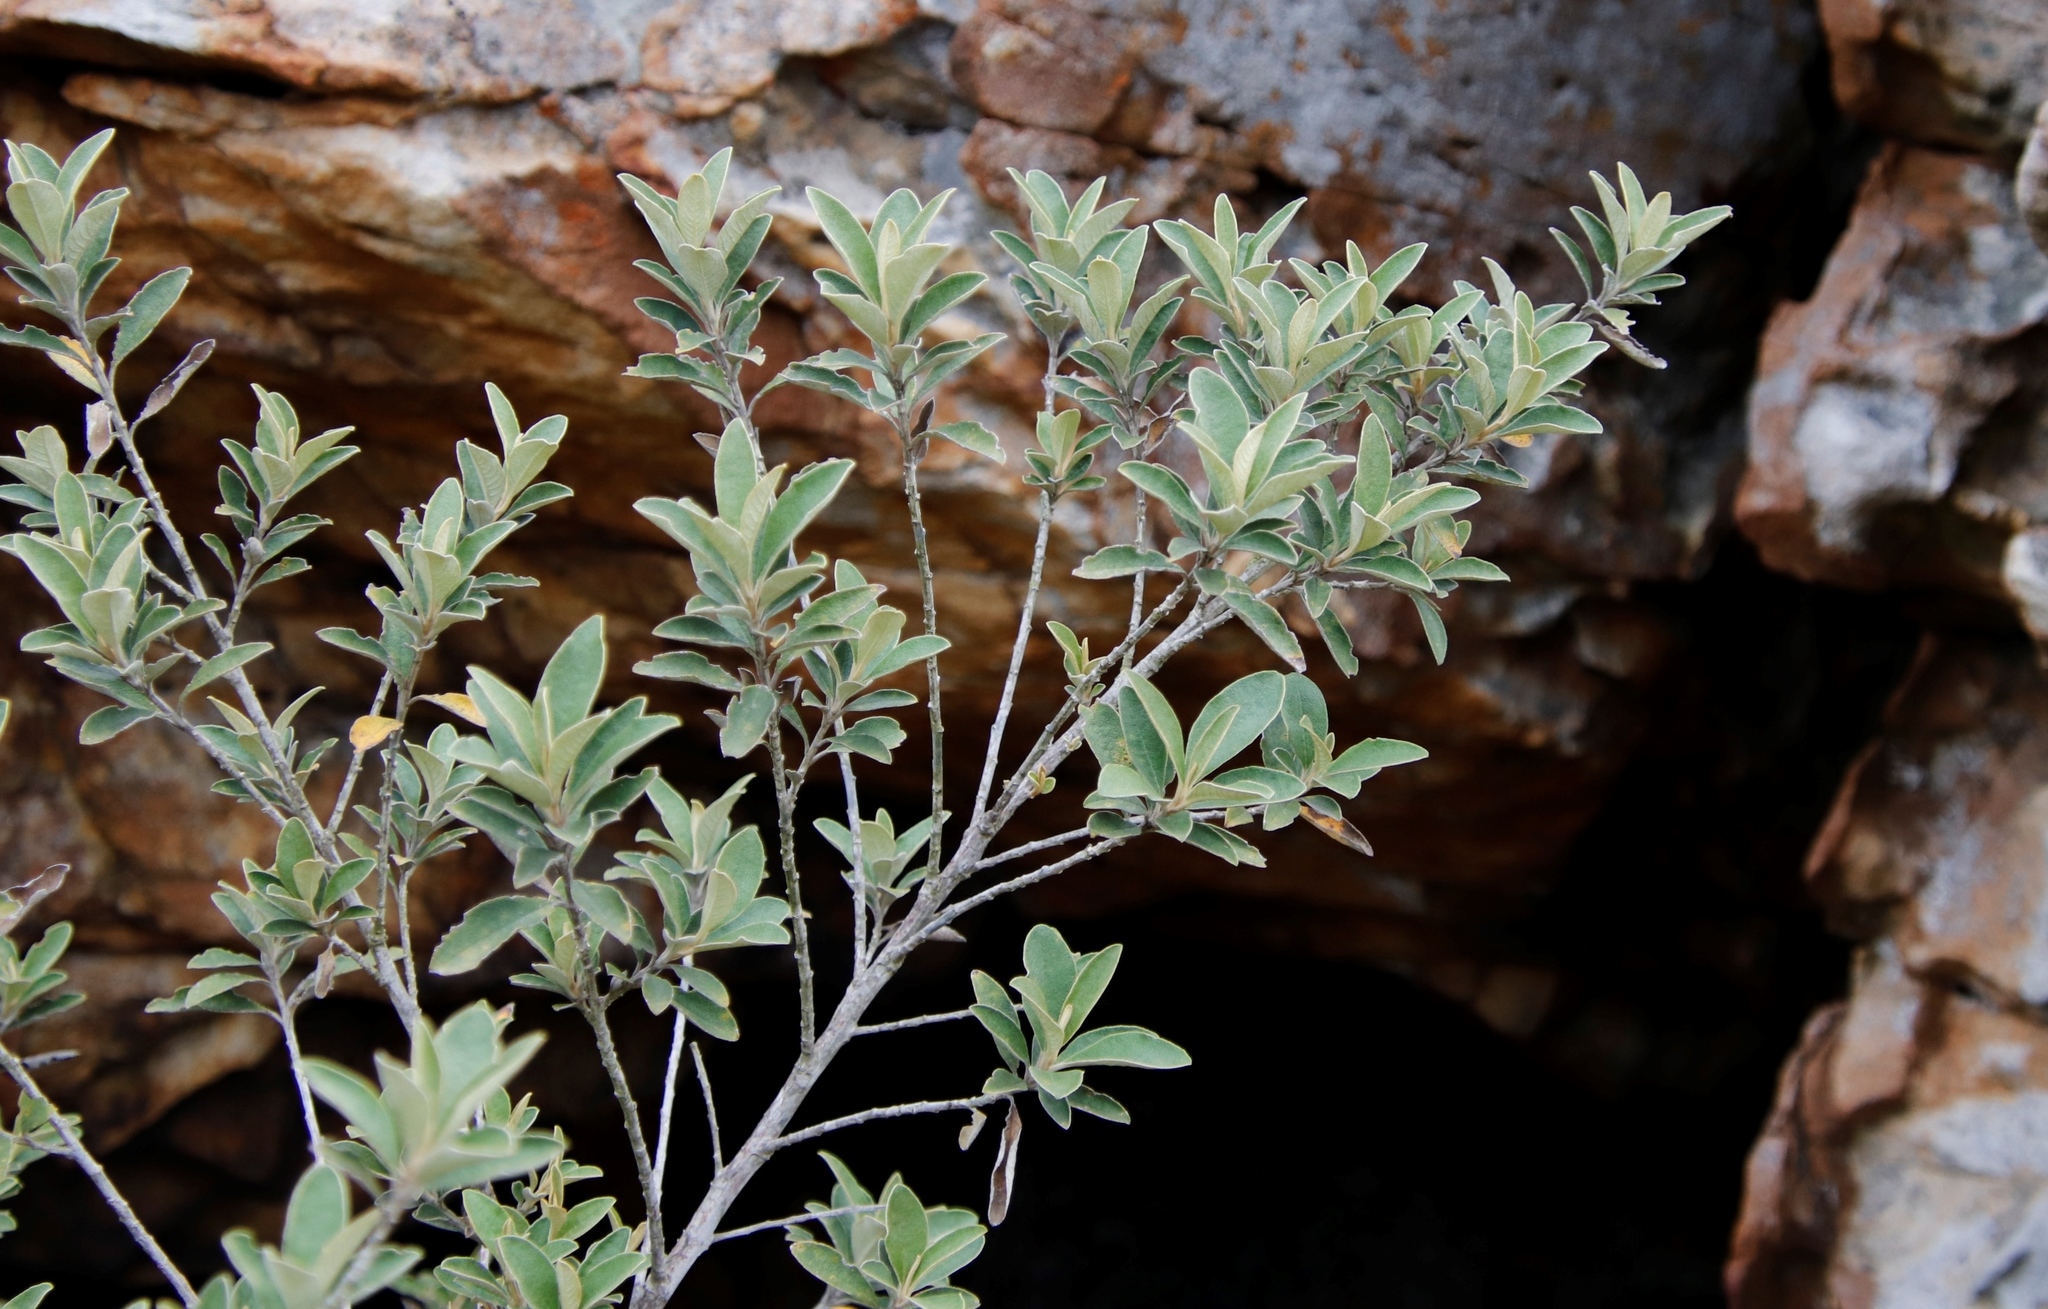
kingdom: Plantae
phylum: Tracheophyta
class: Magnoliopsida
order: Asterales
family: Asteraceae
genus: Tarchonanthus
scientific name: Tarchonanthus littoralis
